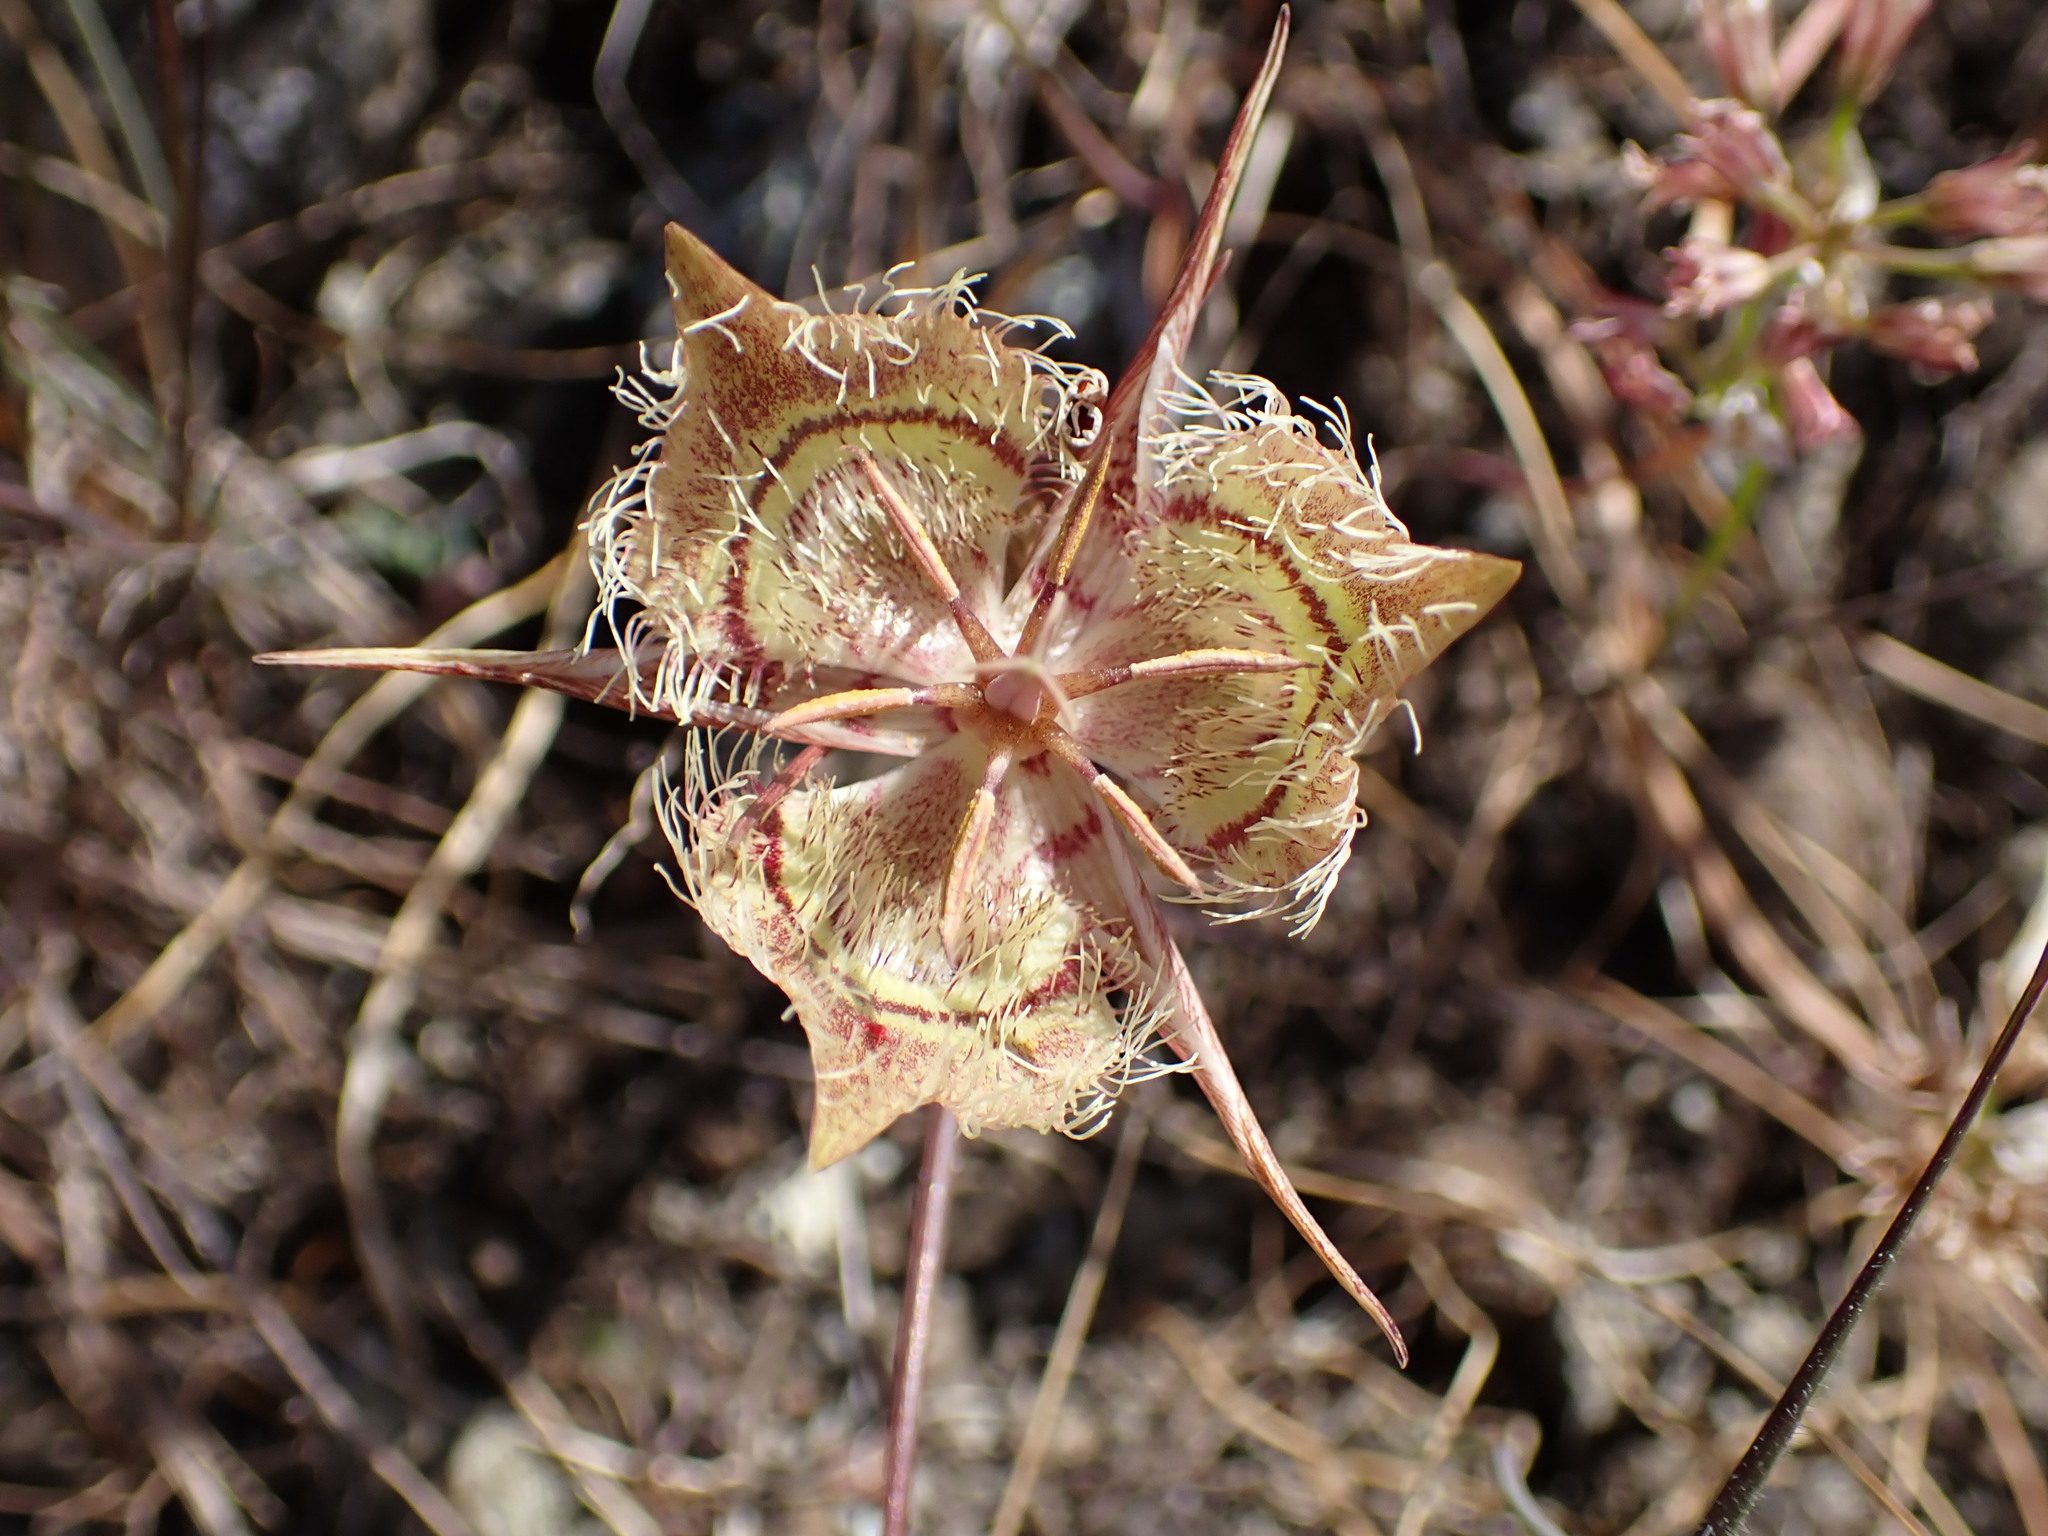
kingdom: Plantae
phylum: Tracheophyta
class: Liliopsida
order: Liliales
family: Liliaceae
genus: Calochortus
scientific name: Calochortus tiburonensis
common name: Tiburon mariposa-lily
